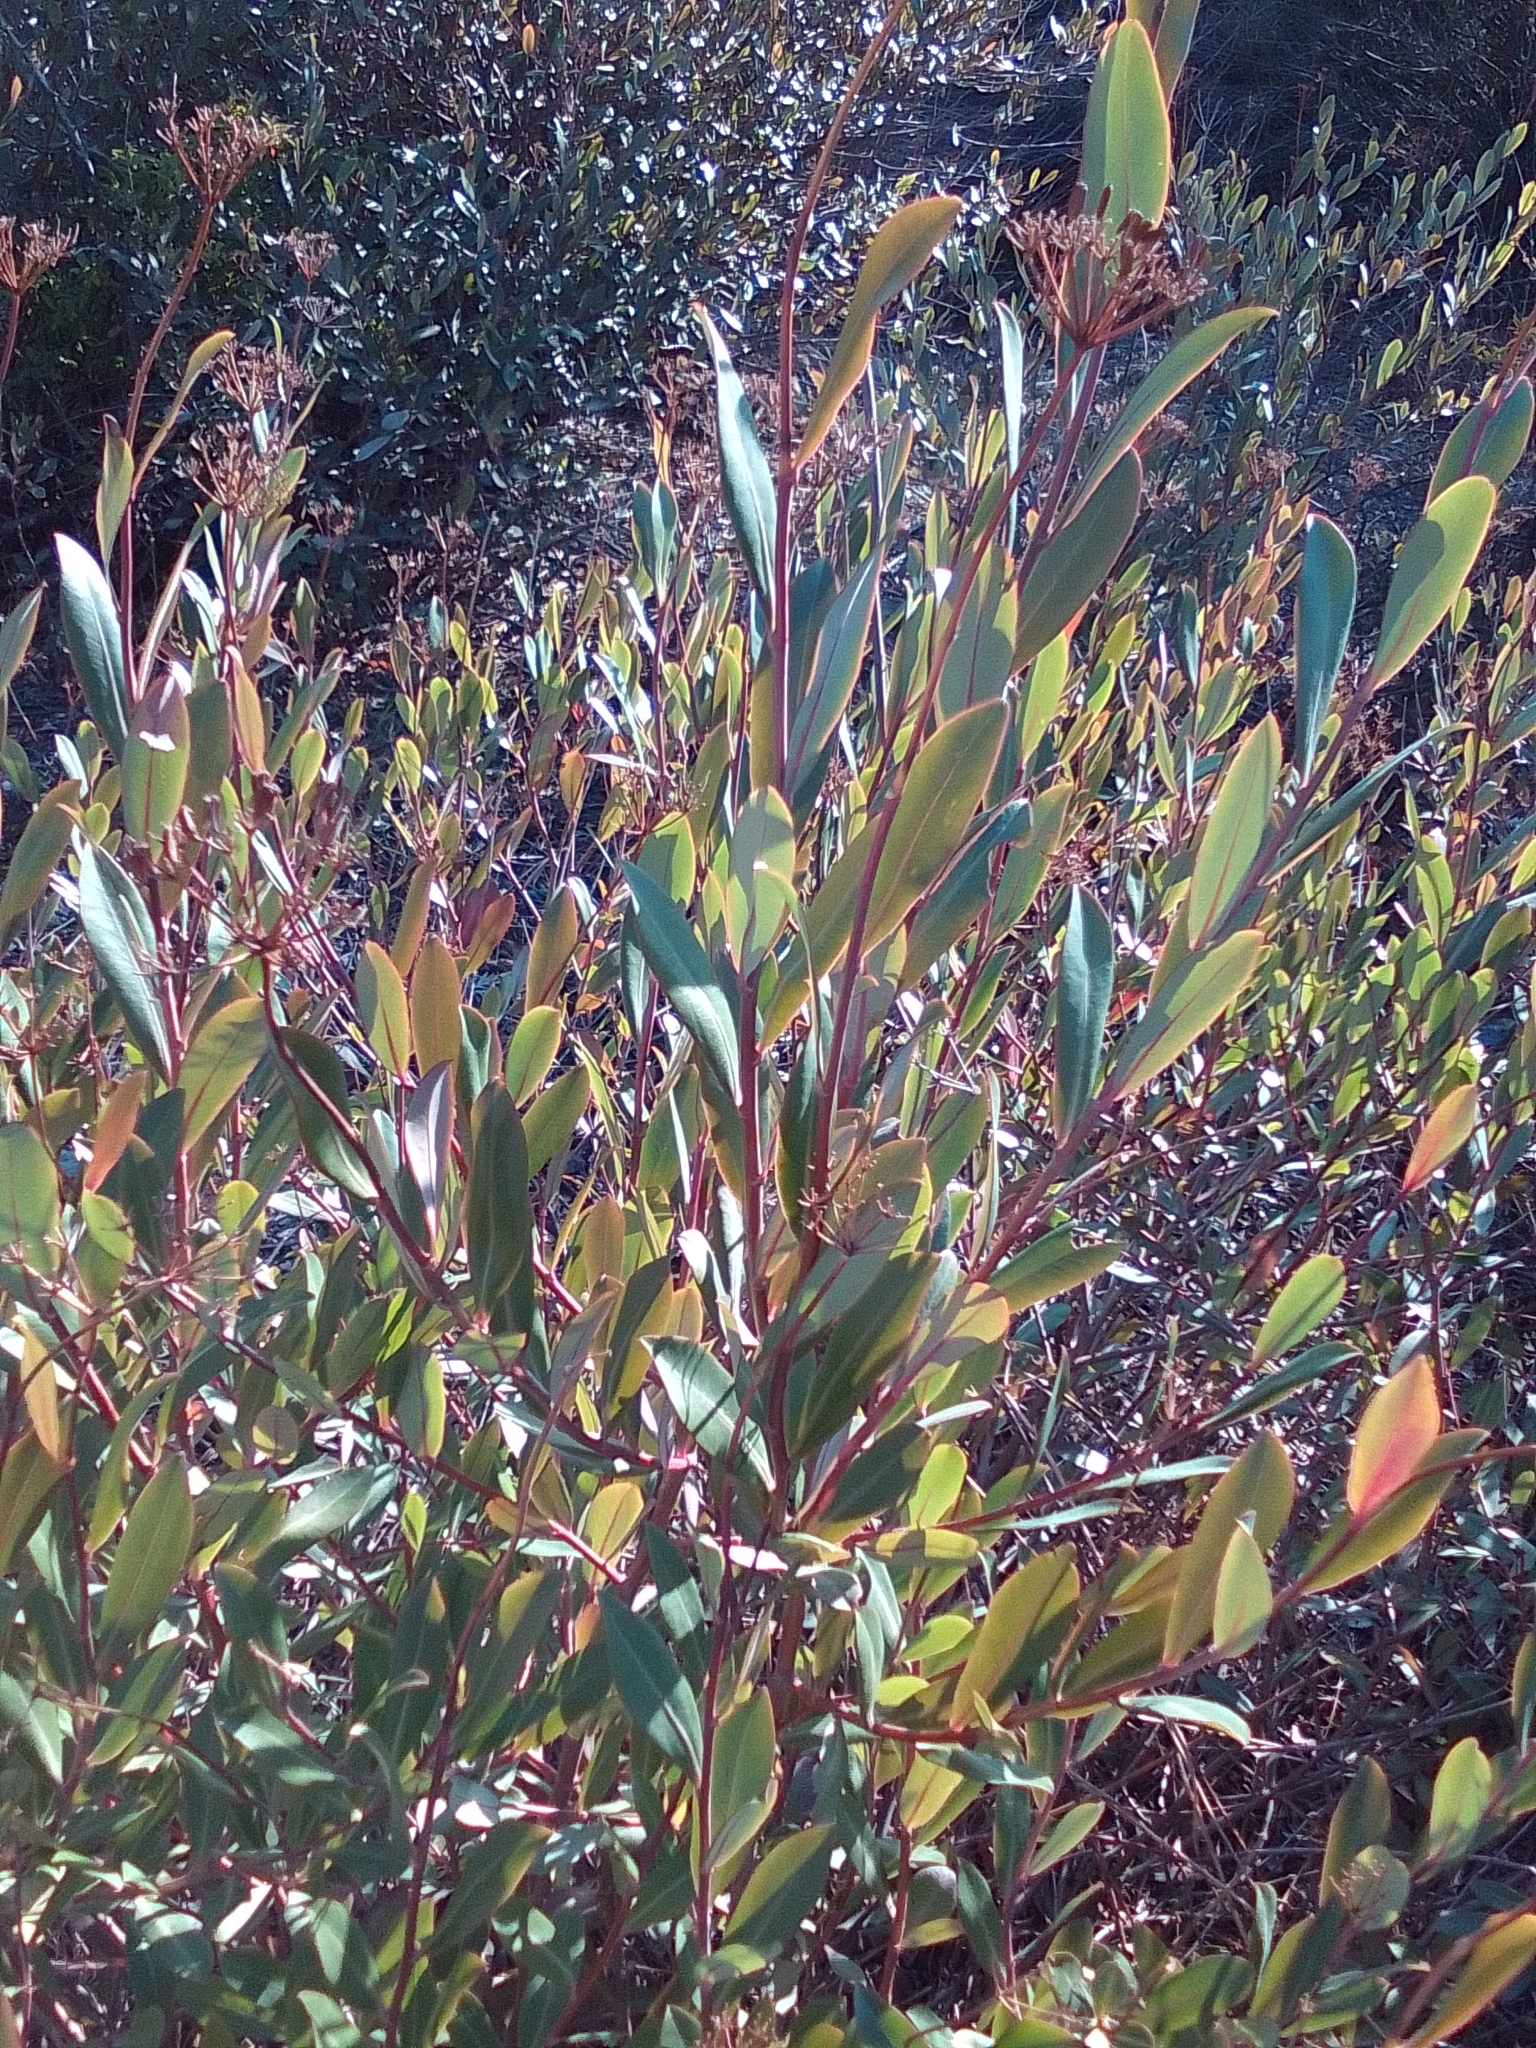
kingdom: Plantae
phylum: Tracheophyta
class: Magnoliopsida
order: Apiales
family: Apiaceae
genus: Bupleurum
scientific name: Bupleurum fruticosum
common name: Shrubby hare's-ear
